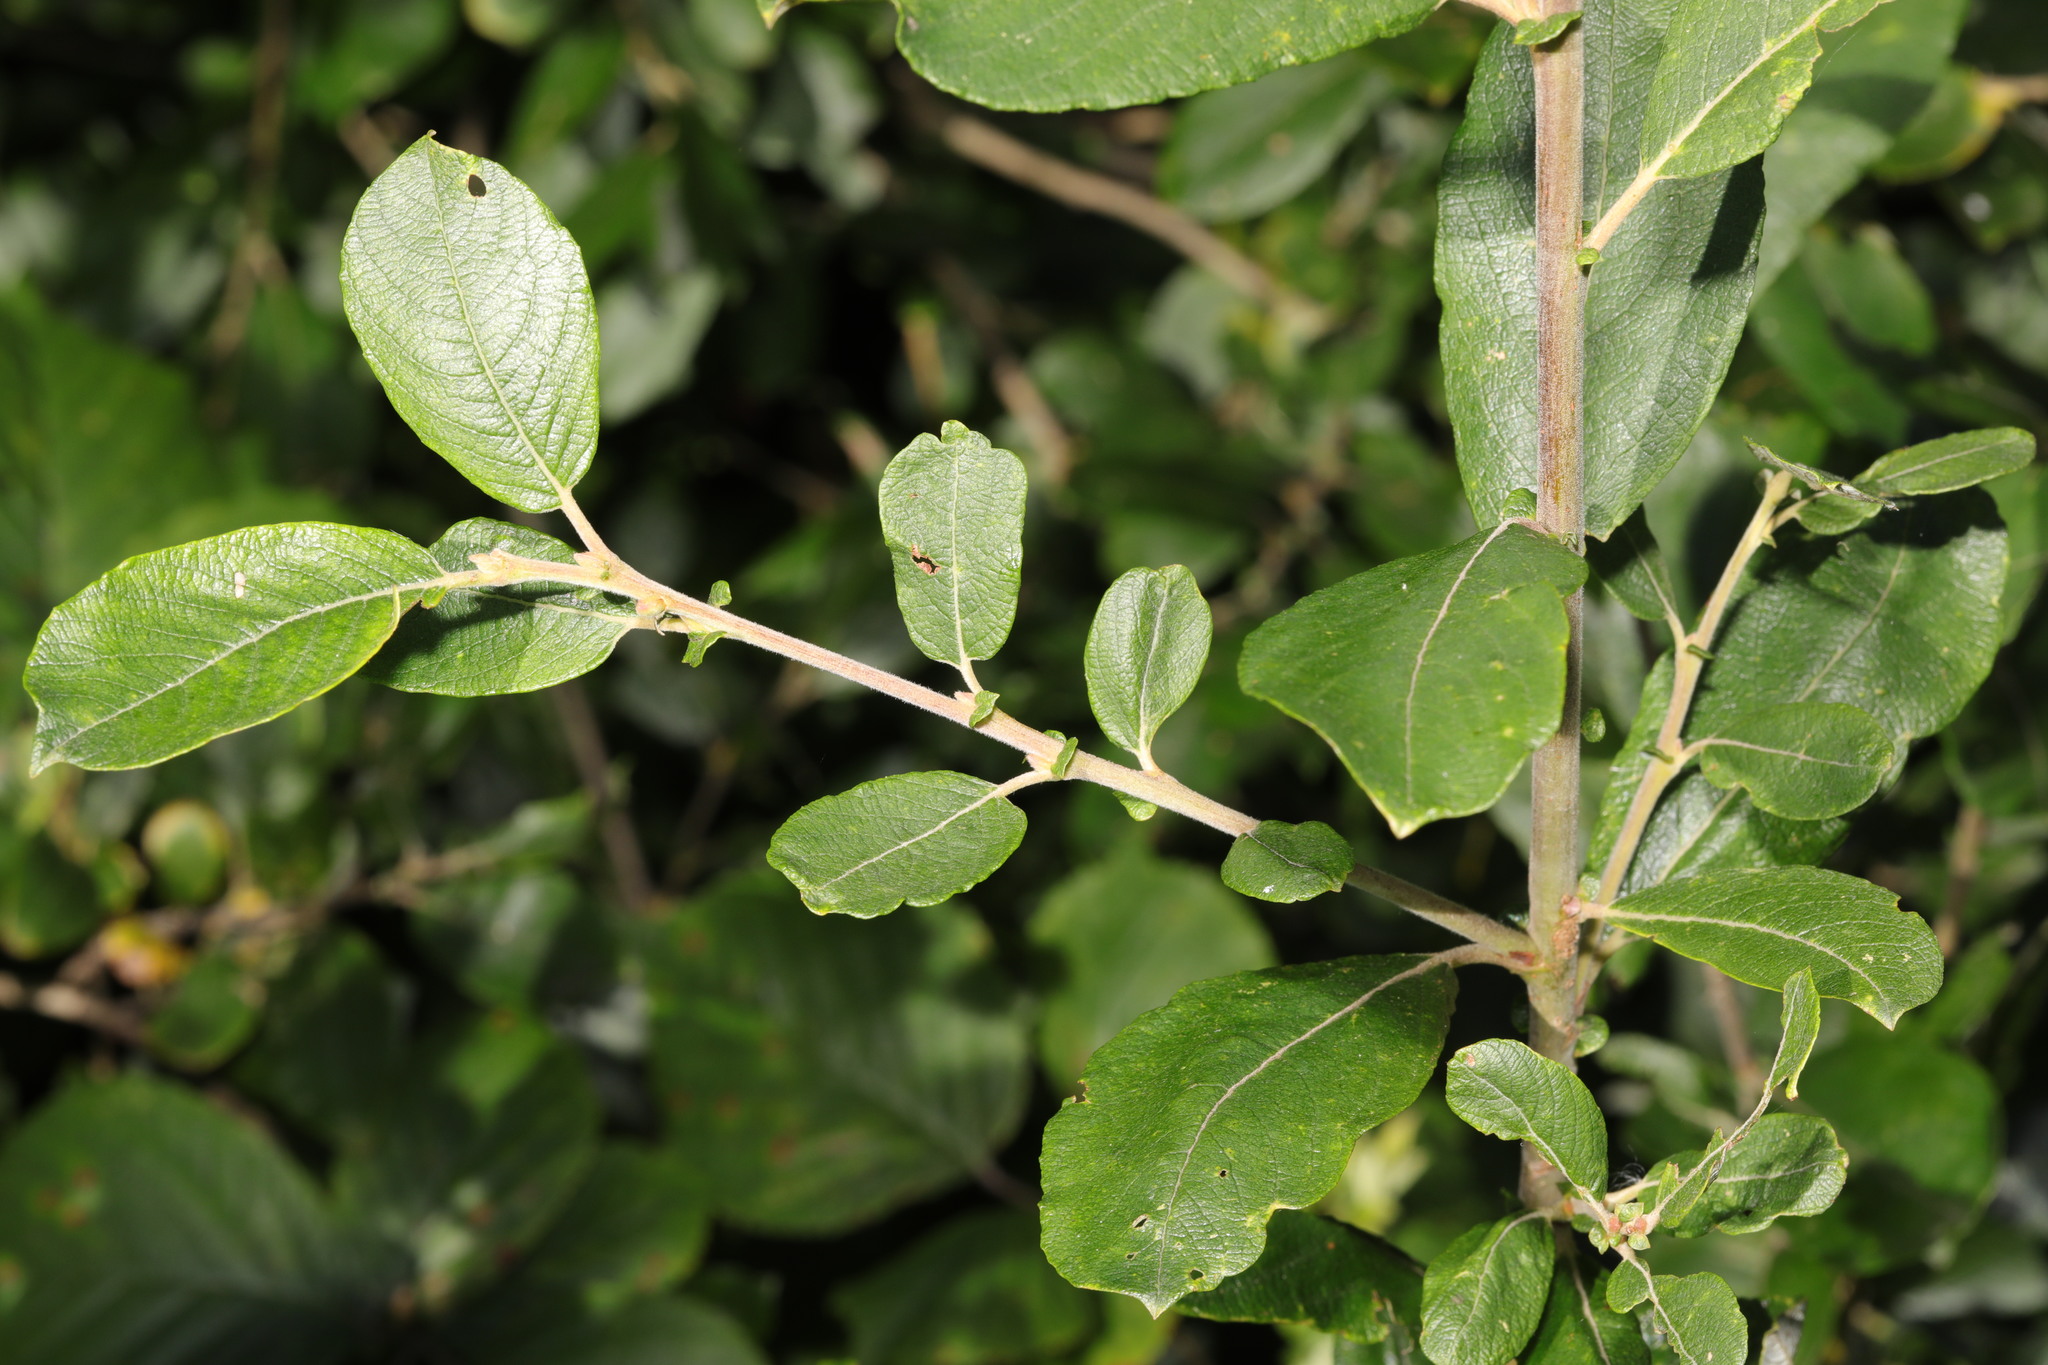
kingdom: Plantae
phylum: Tracheophyta
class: Magnoliopsida
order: Malpighiales
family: Salicaceae
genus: Salix
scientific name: Salix cinerea
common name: Common sallow
